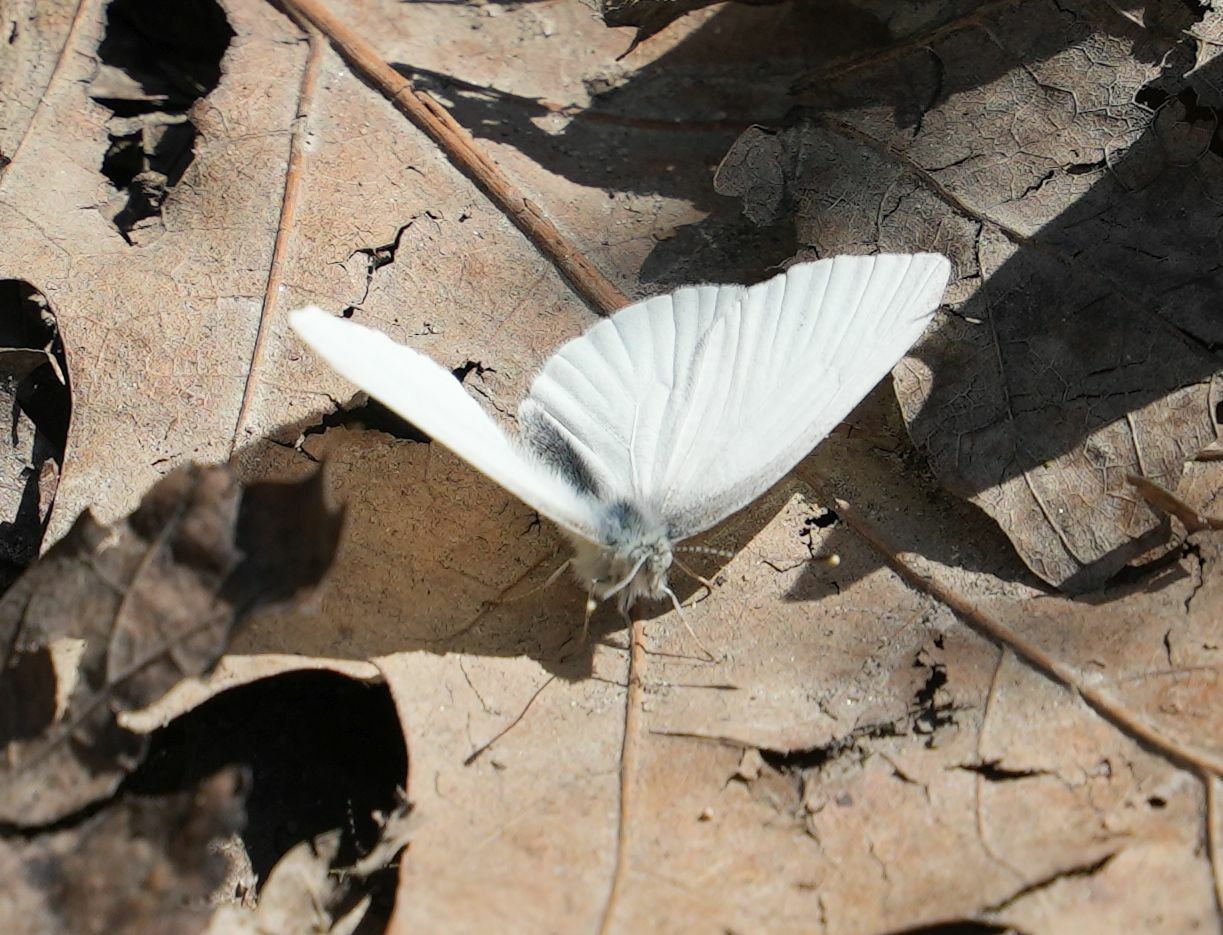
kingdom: Animalia
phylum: Arthropoda
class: Insecta
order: Lepidoptera
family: Pieridae
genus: Pieris
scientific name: Pieris virginiensis
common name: West virginia white
